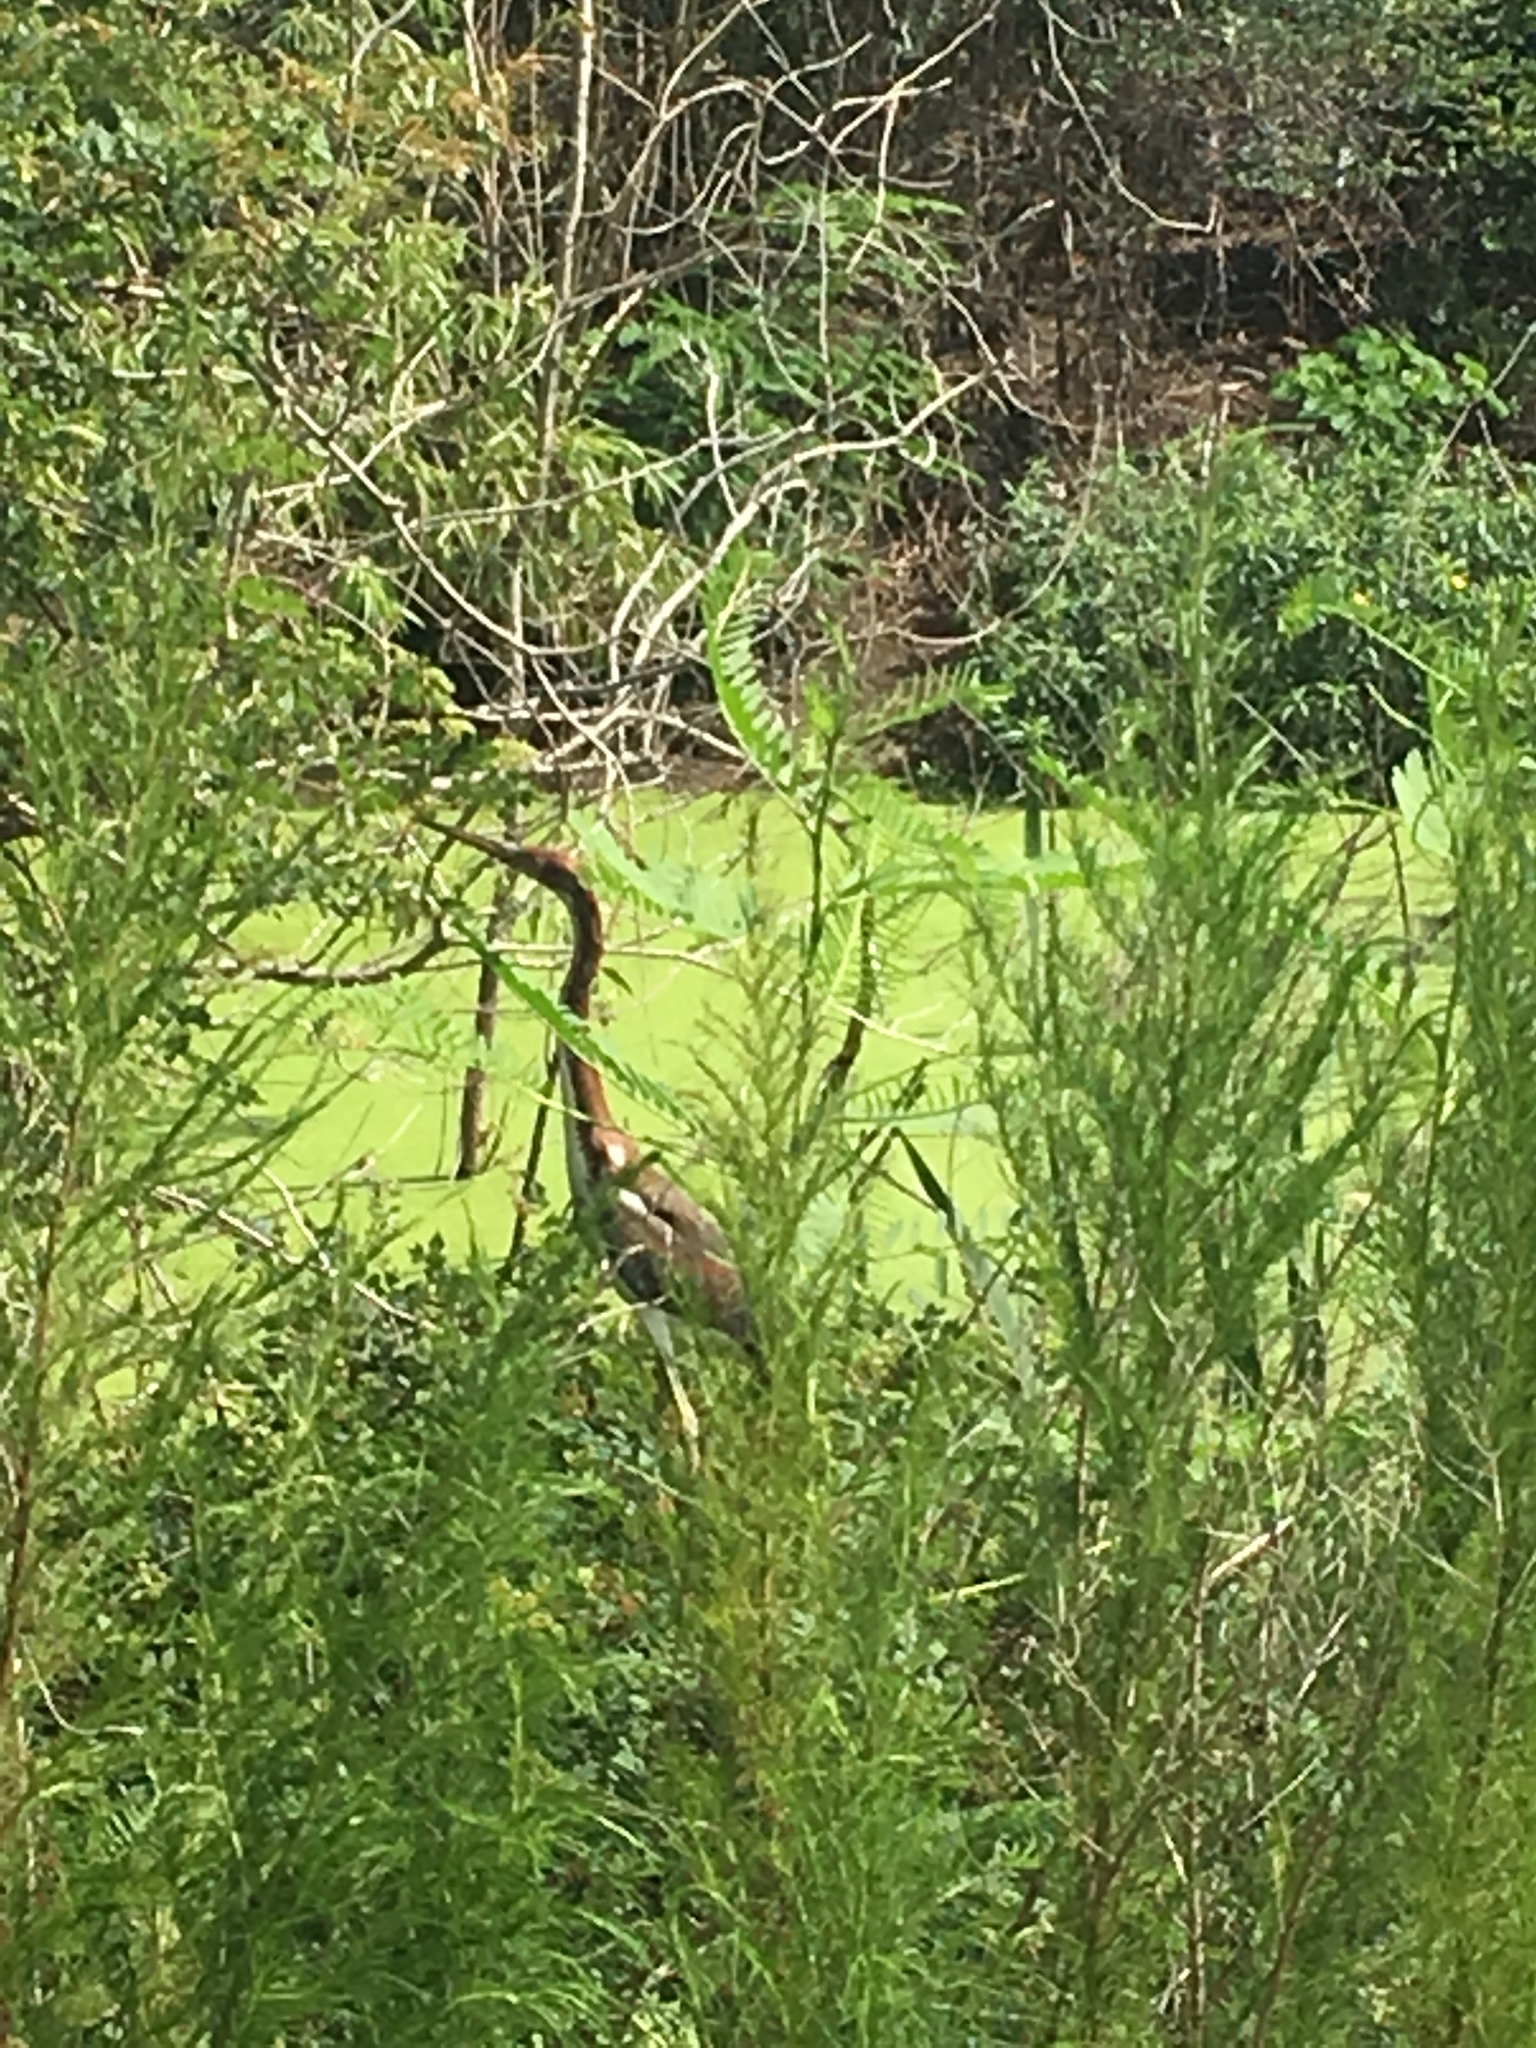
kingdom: Animalia
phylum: Chordata
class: Aves
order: Pelecaniformes
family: Ardeidae
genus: Egretta
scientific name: Egretta tricolor
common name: Tricolored heron
